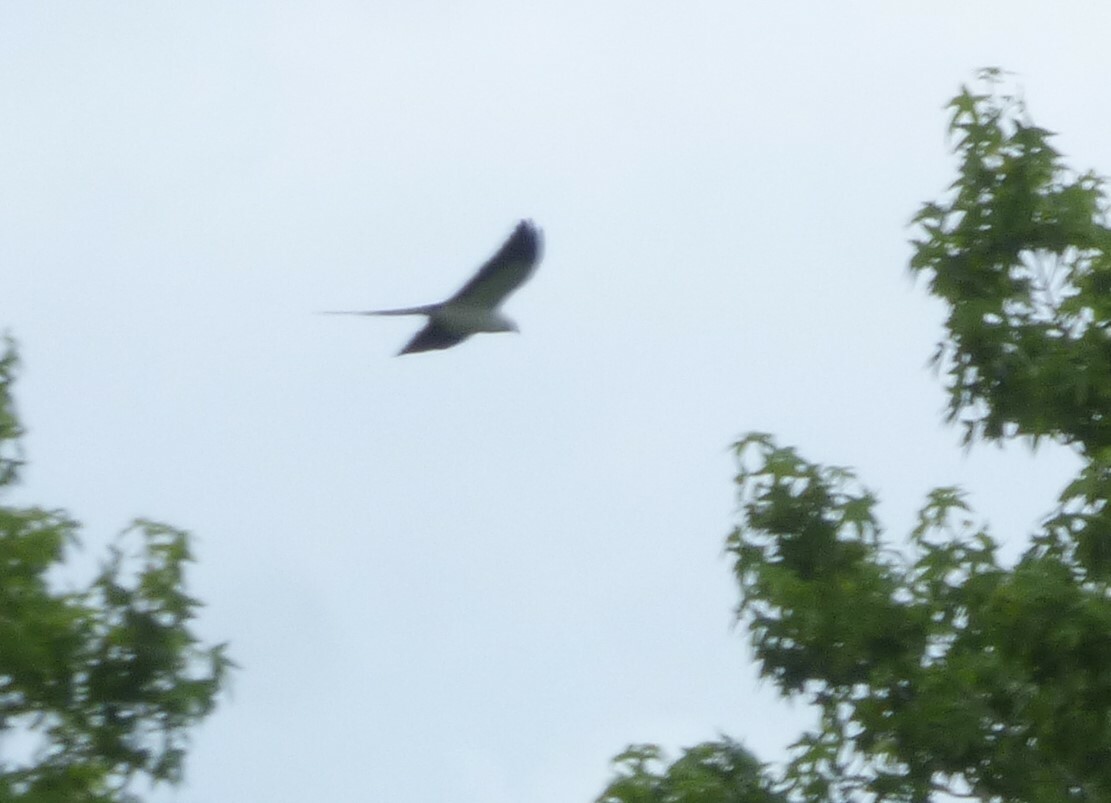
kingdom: Animalia
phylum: Chordata
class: Aves
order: Accipitriformes
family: Accipitridae
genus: Elanoides
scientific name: Elanoides forficatus
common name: Swallow-tailed kite
